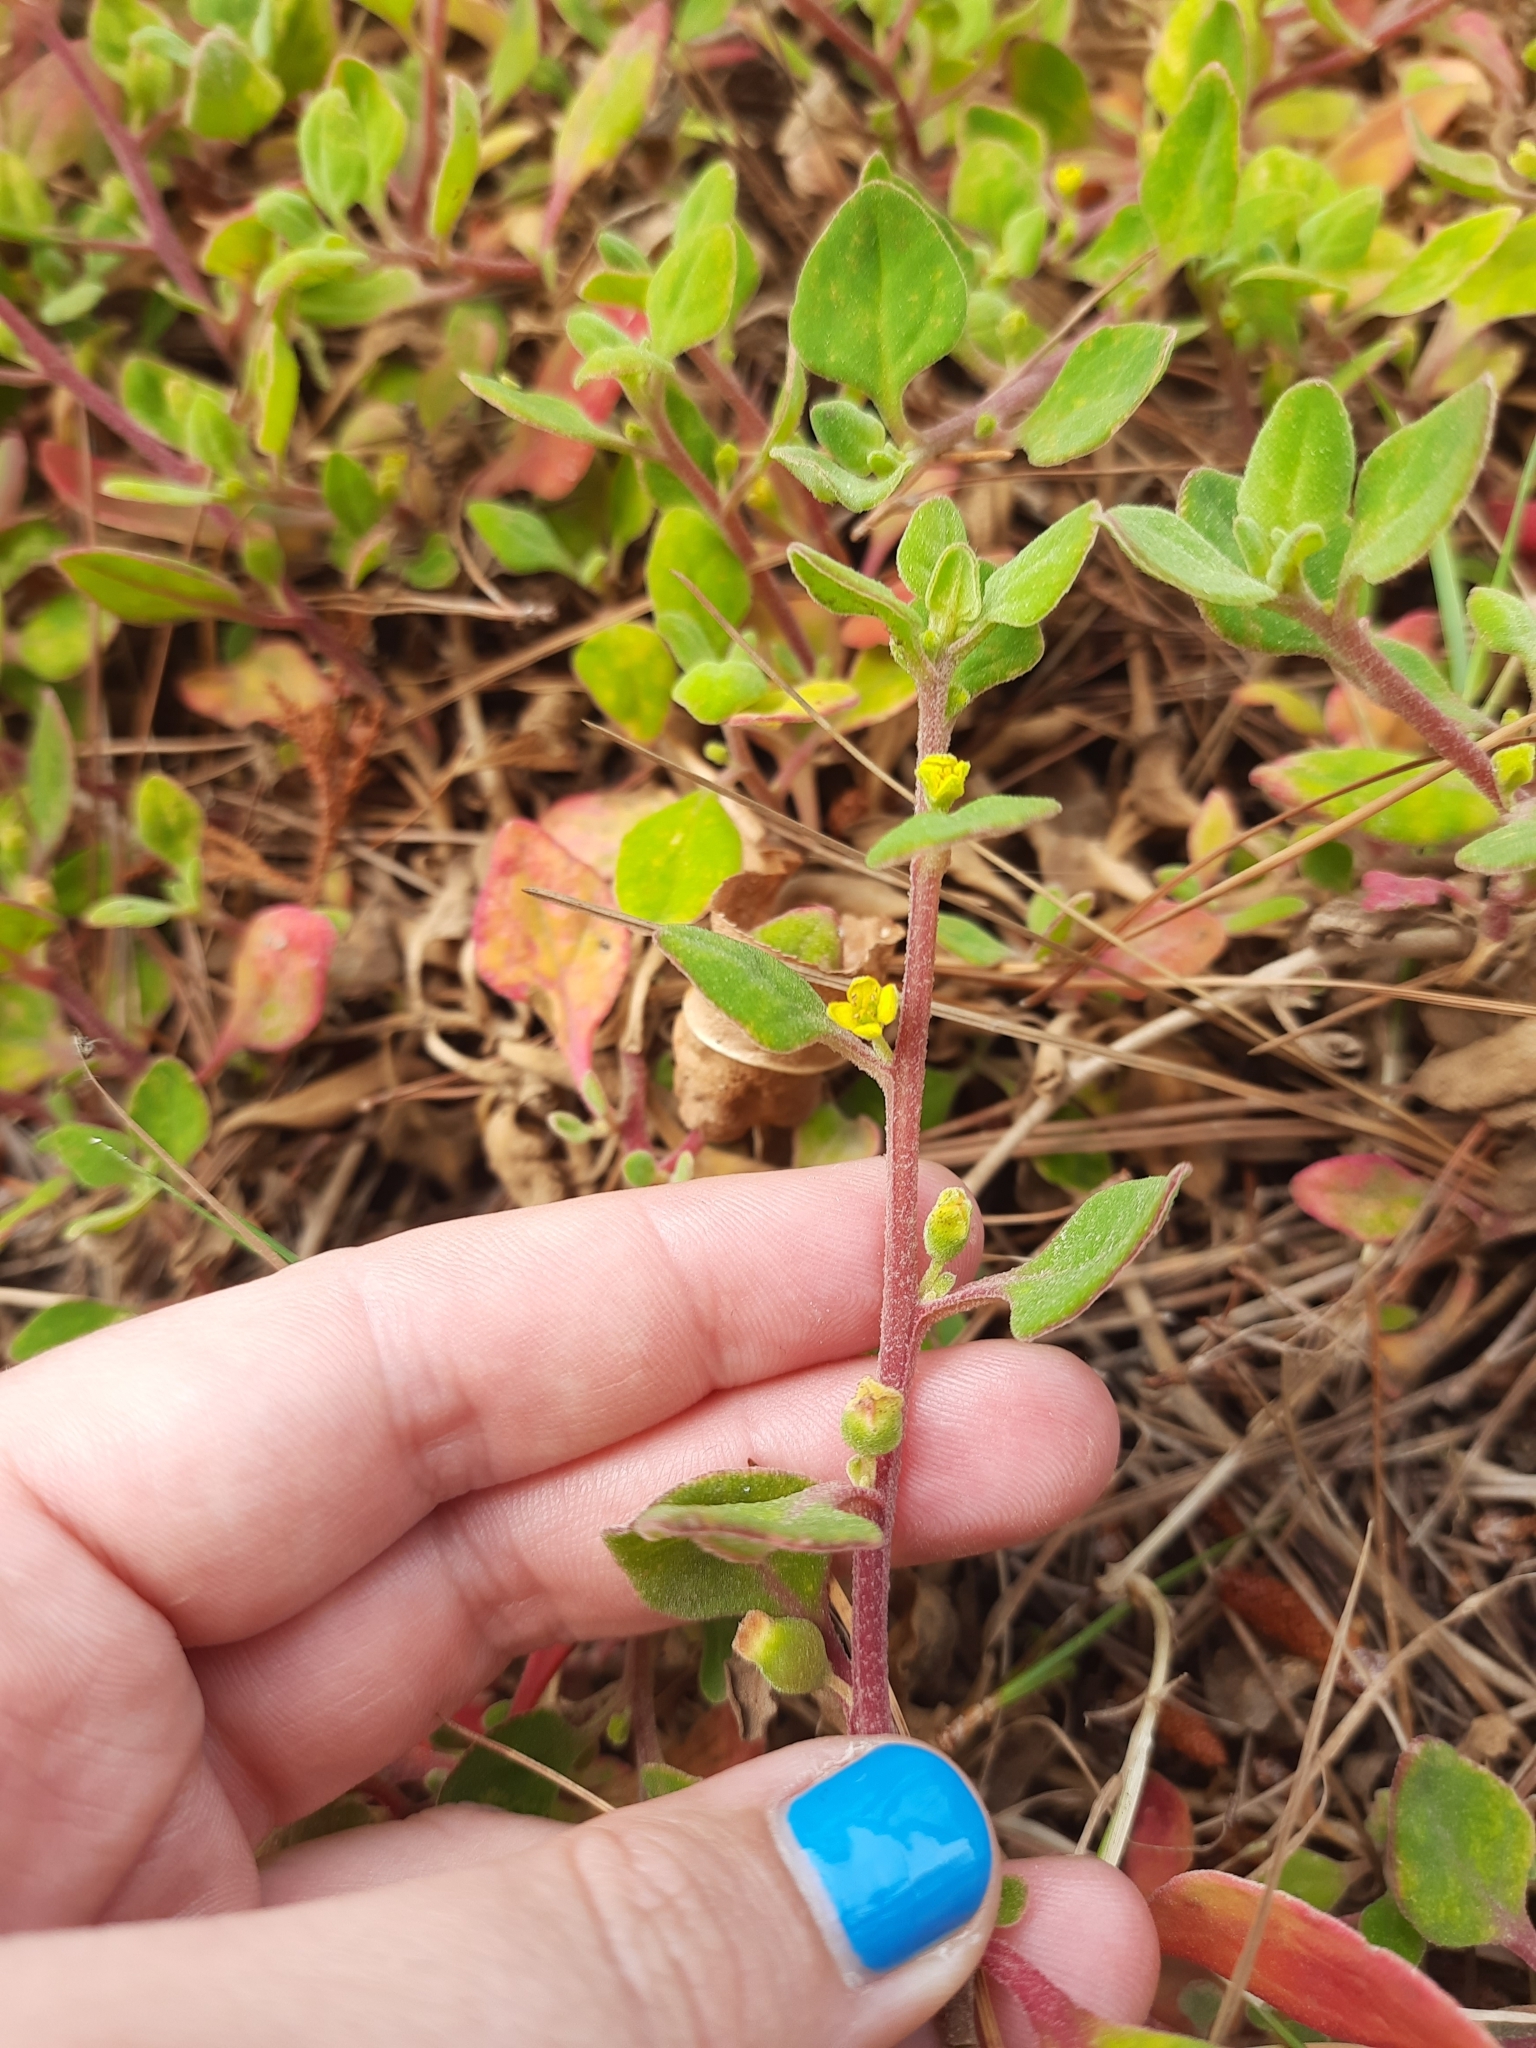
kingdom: Plantae
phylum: Tracheophyta
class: Magnoliopsida
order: Caryophyllales
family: Aizoaceae
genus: Tetragonia
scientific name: Tetragonia implexicoma
